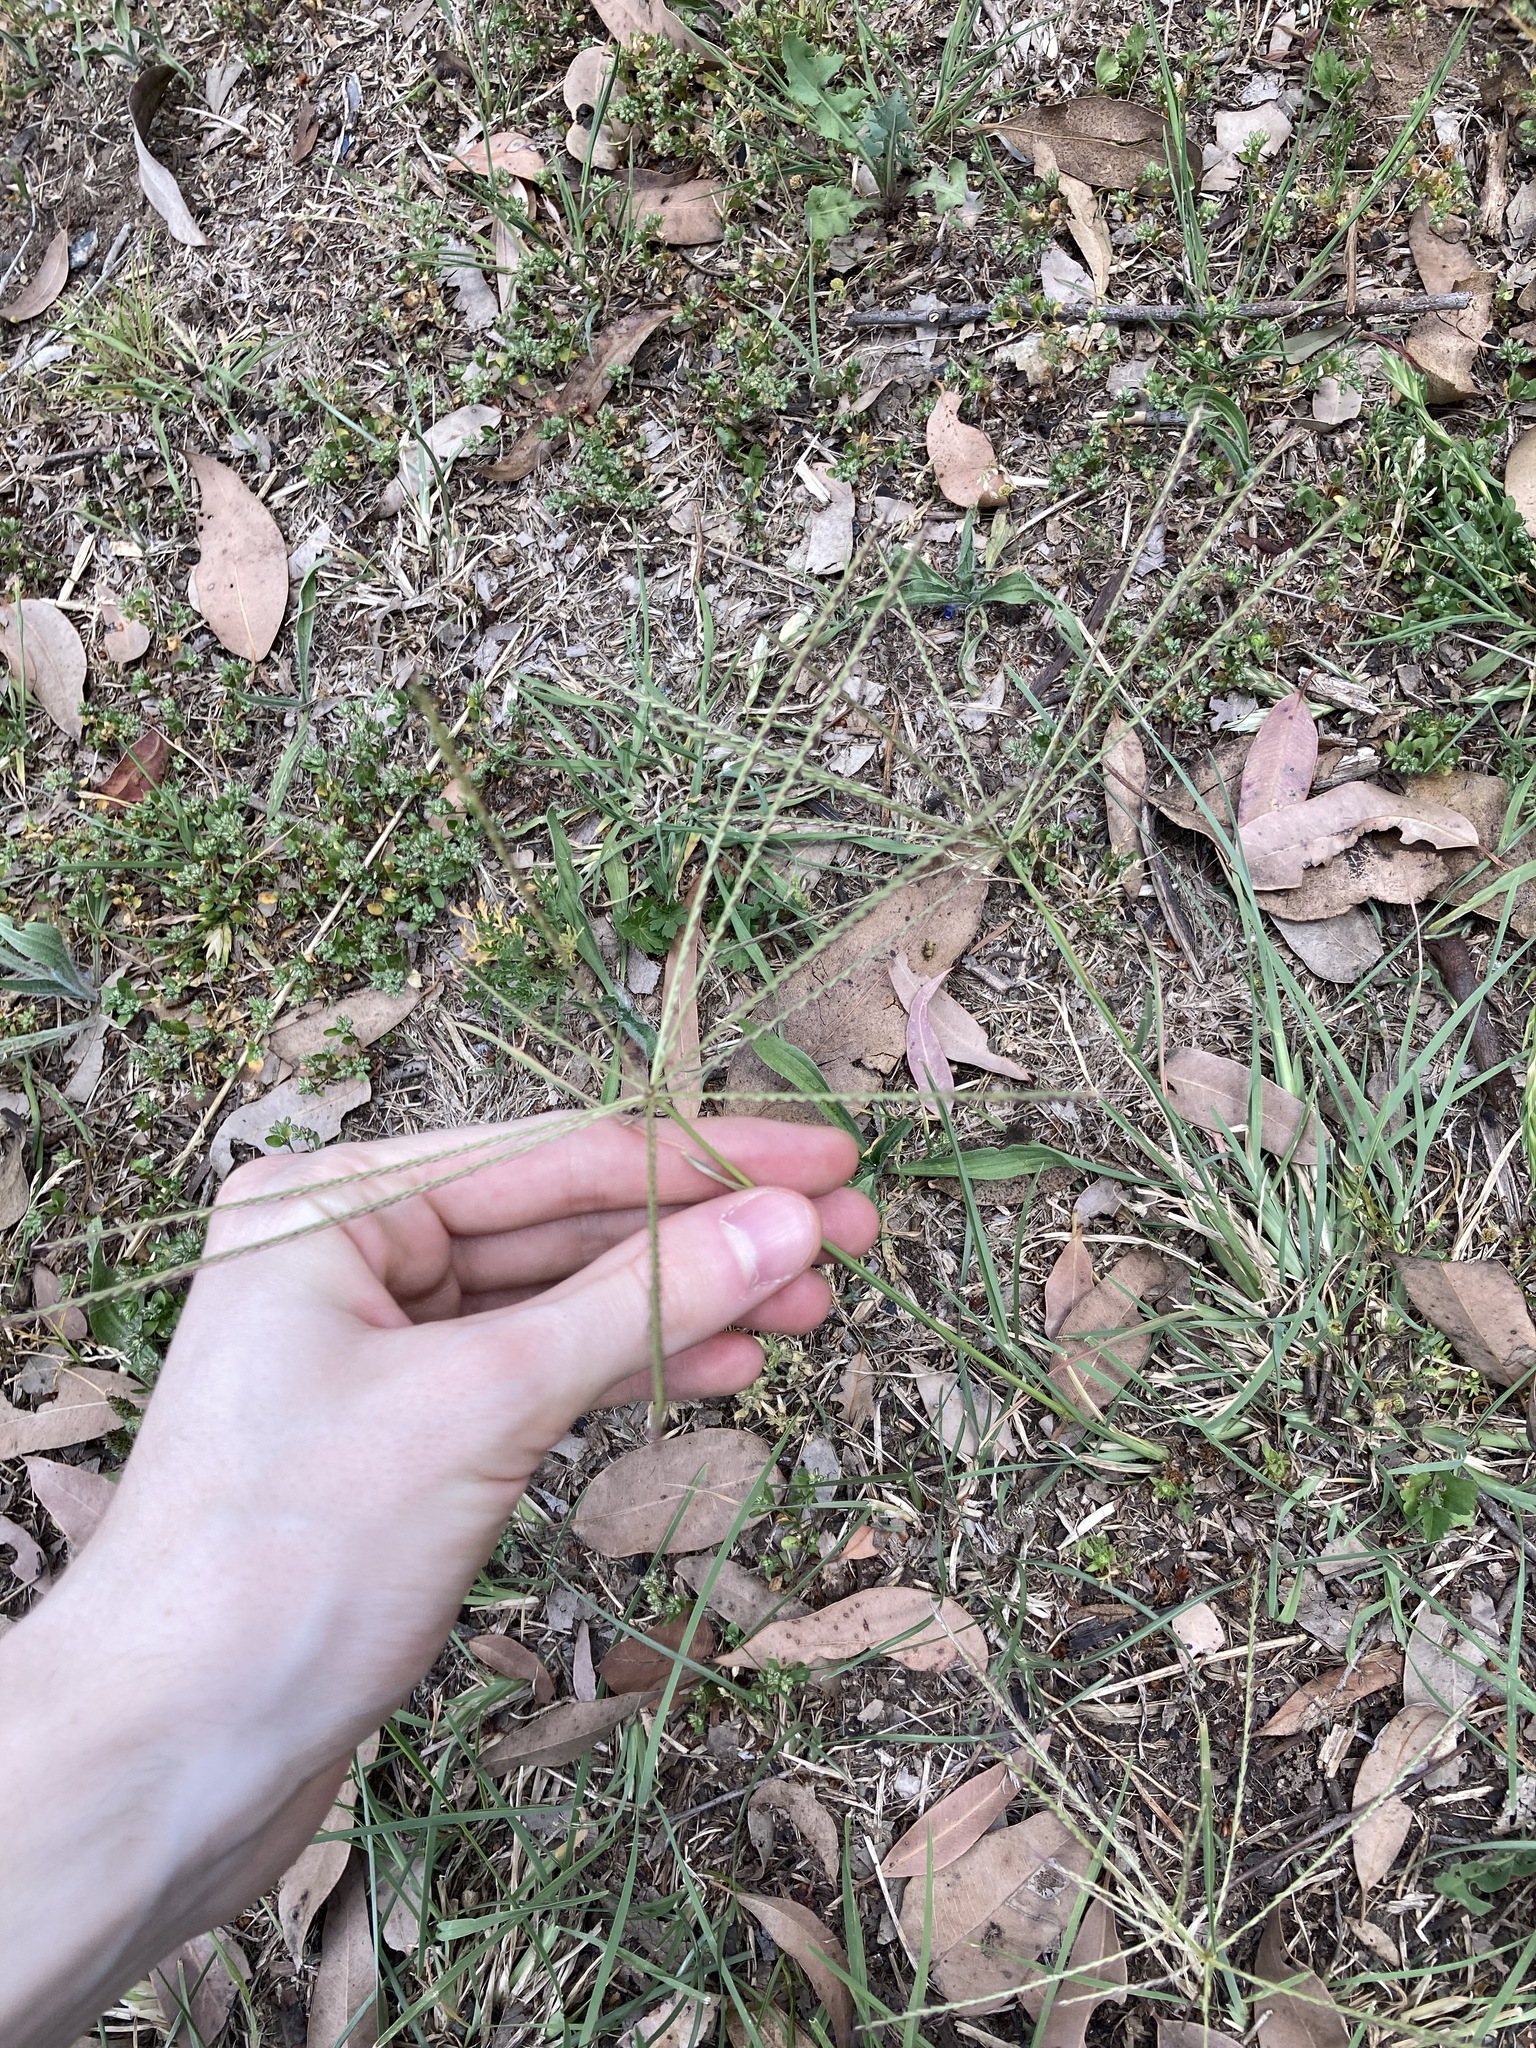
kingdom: Plantae
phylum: Tracheophyta
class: Liliopsida
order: Poales
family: Poaceae
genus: Chloris
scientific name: Chloris truncata
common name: Windmill-grass
